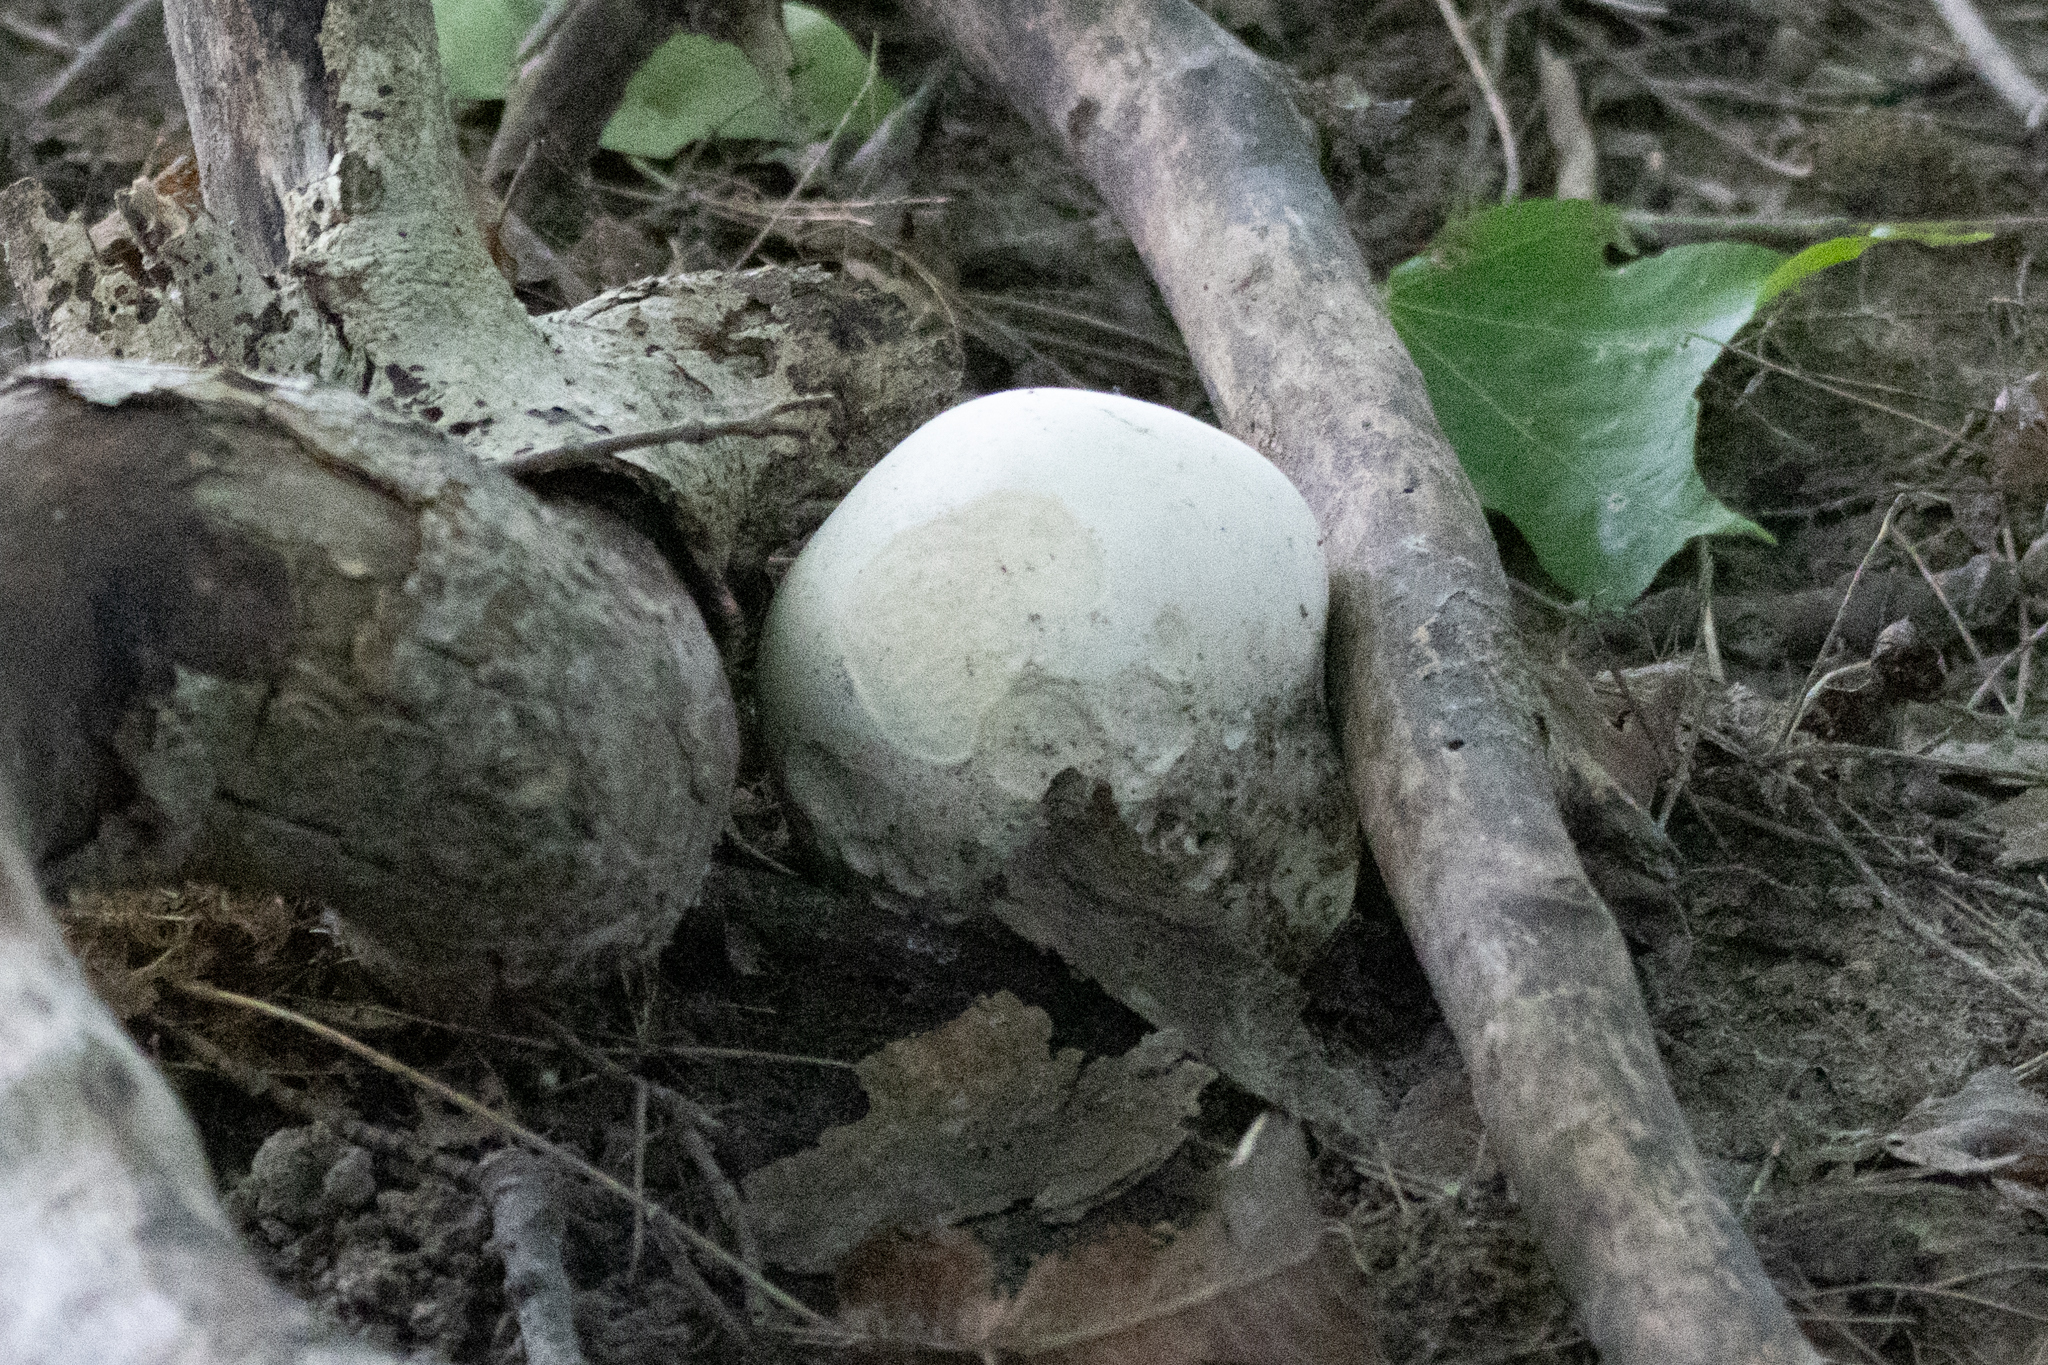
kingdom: Fungi
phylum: Basidiomycota
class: Agaricomycetes
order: Agaricales
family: Lycoperdaceae
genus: Calvatia
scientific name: Calvatia gigantea
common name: Giant puffball
